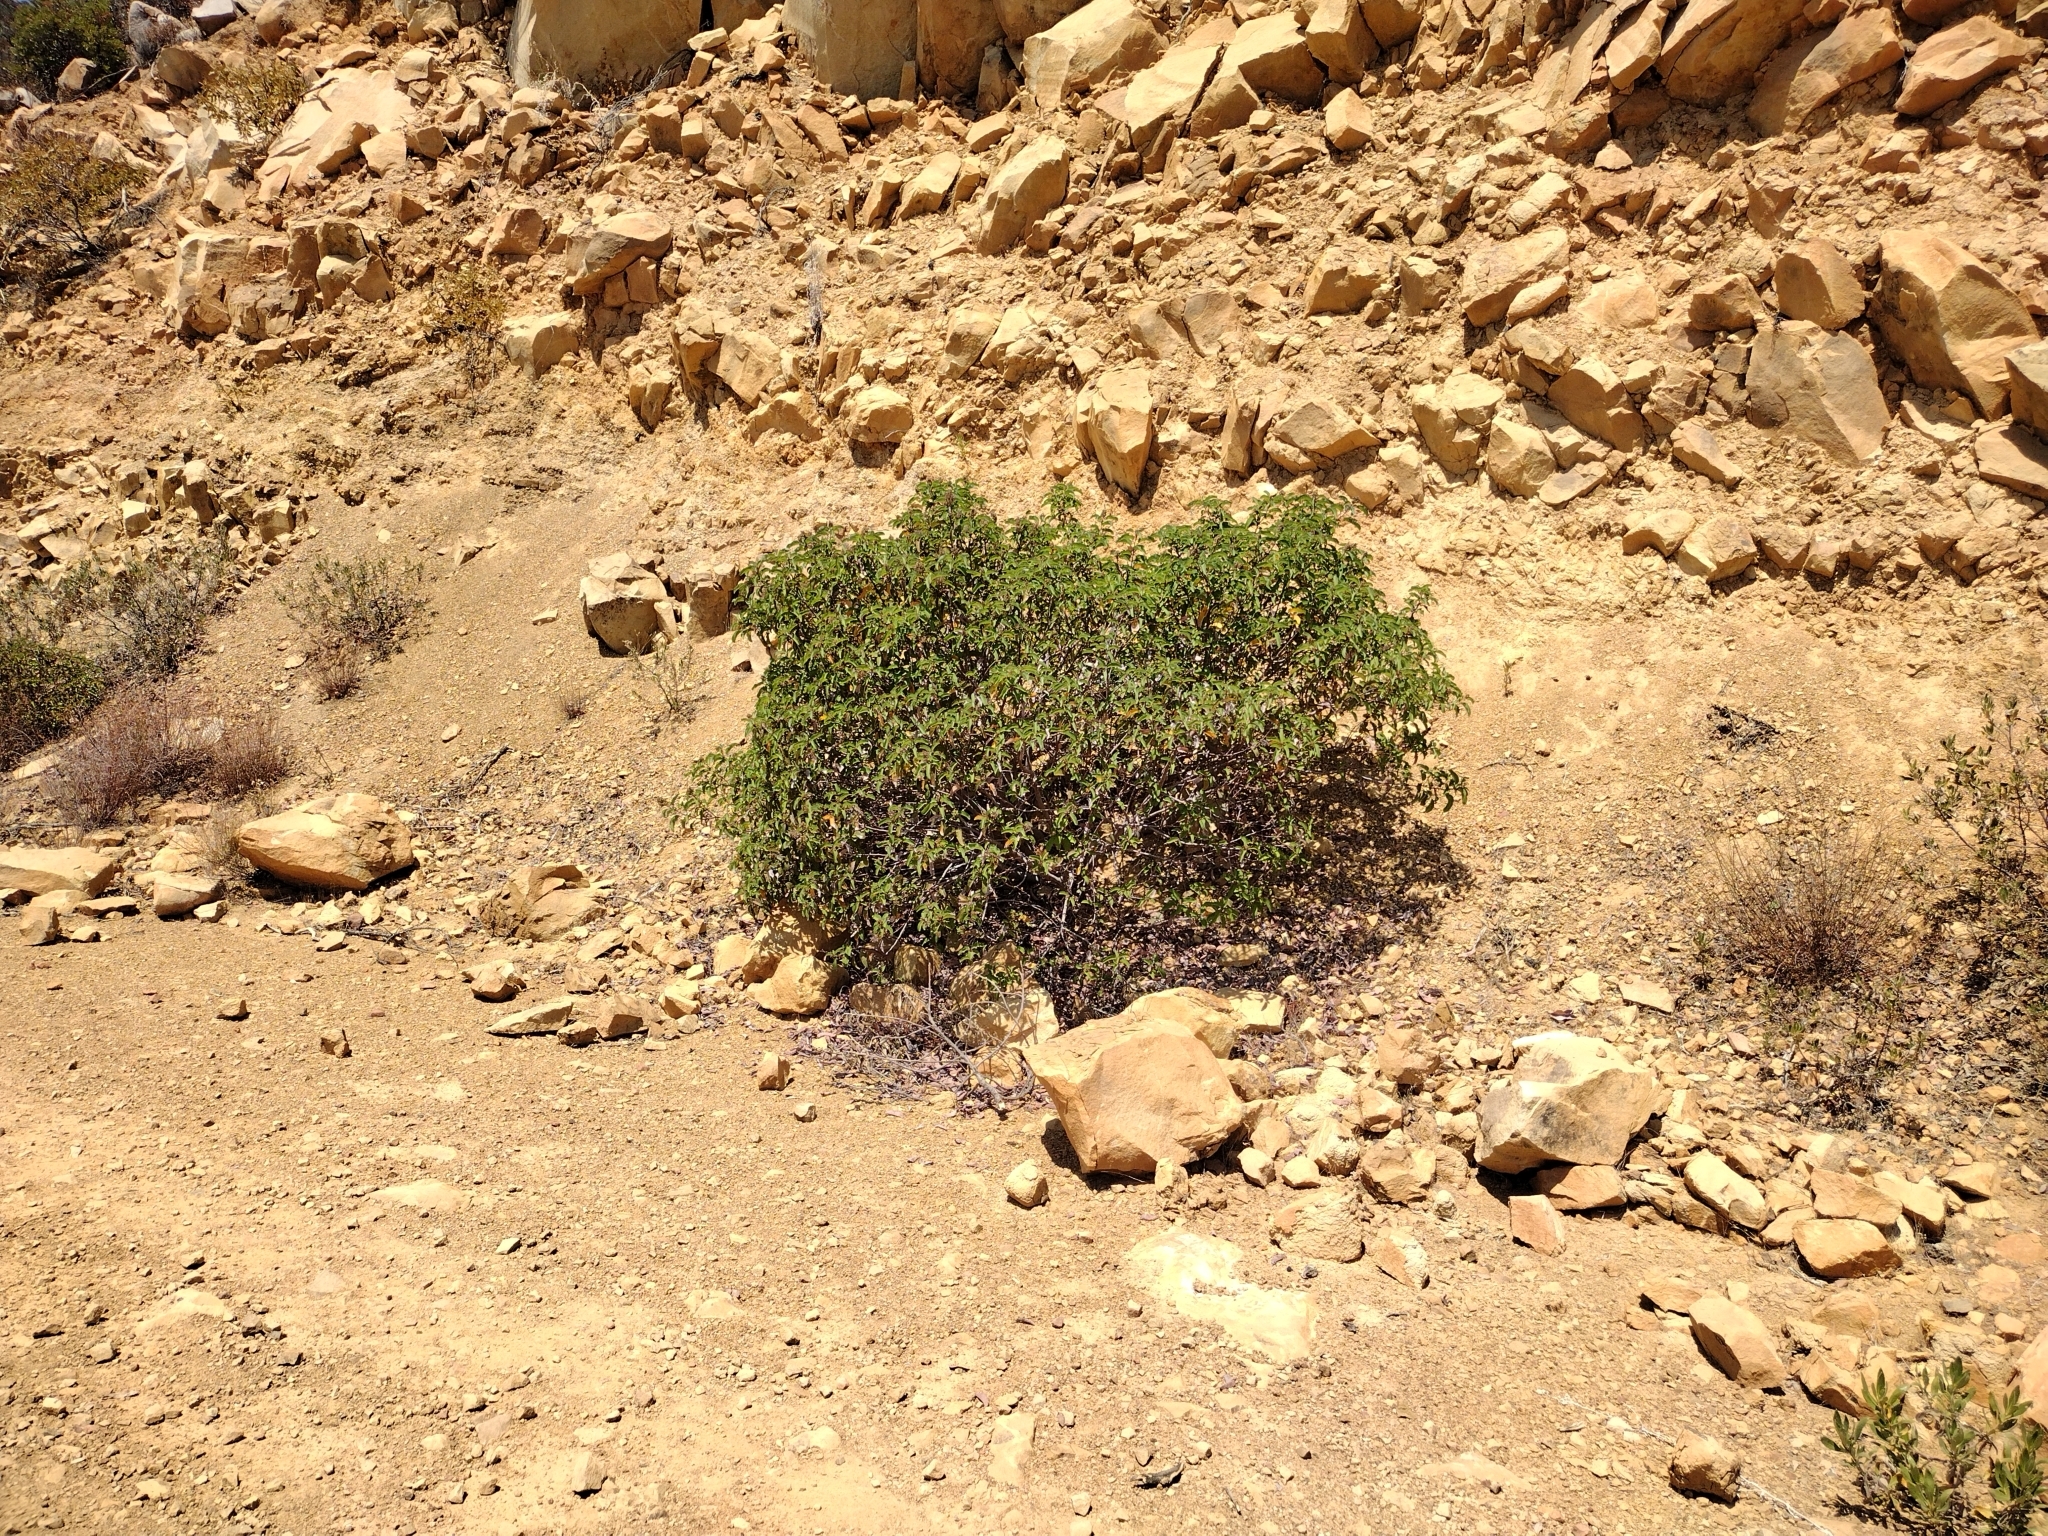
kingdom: Plantae
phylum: Tracheophyta
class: Magnoliopsida
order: Sapindales
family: Anacardiaceae
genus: Malosma
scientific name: Malosma laurina
